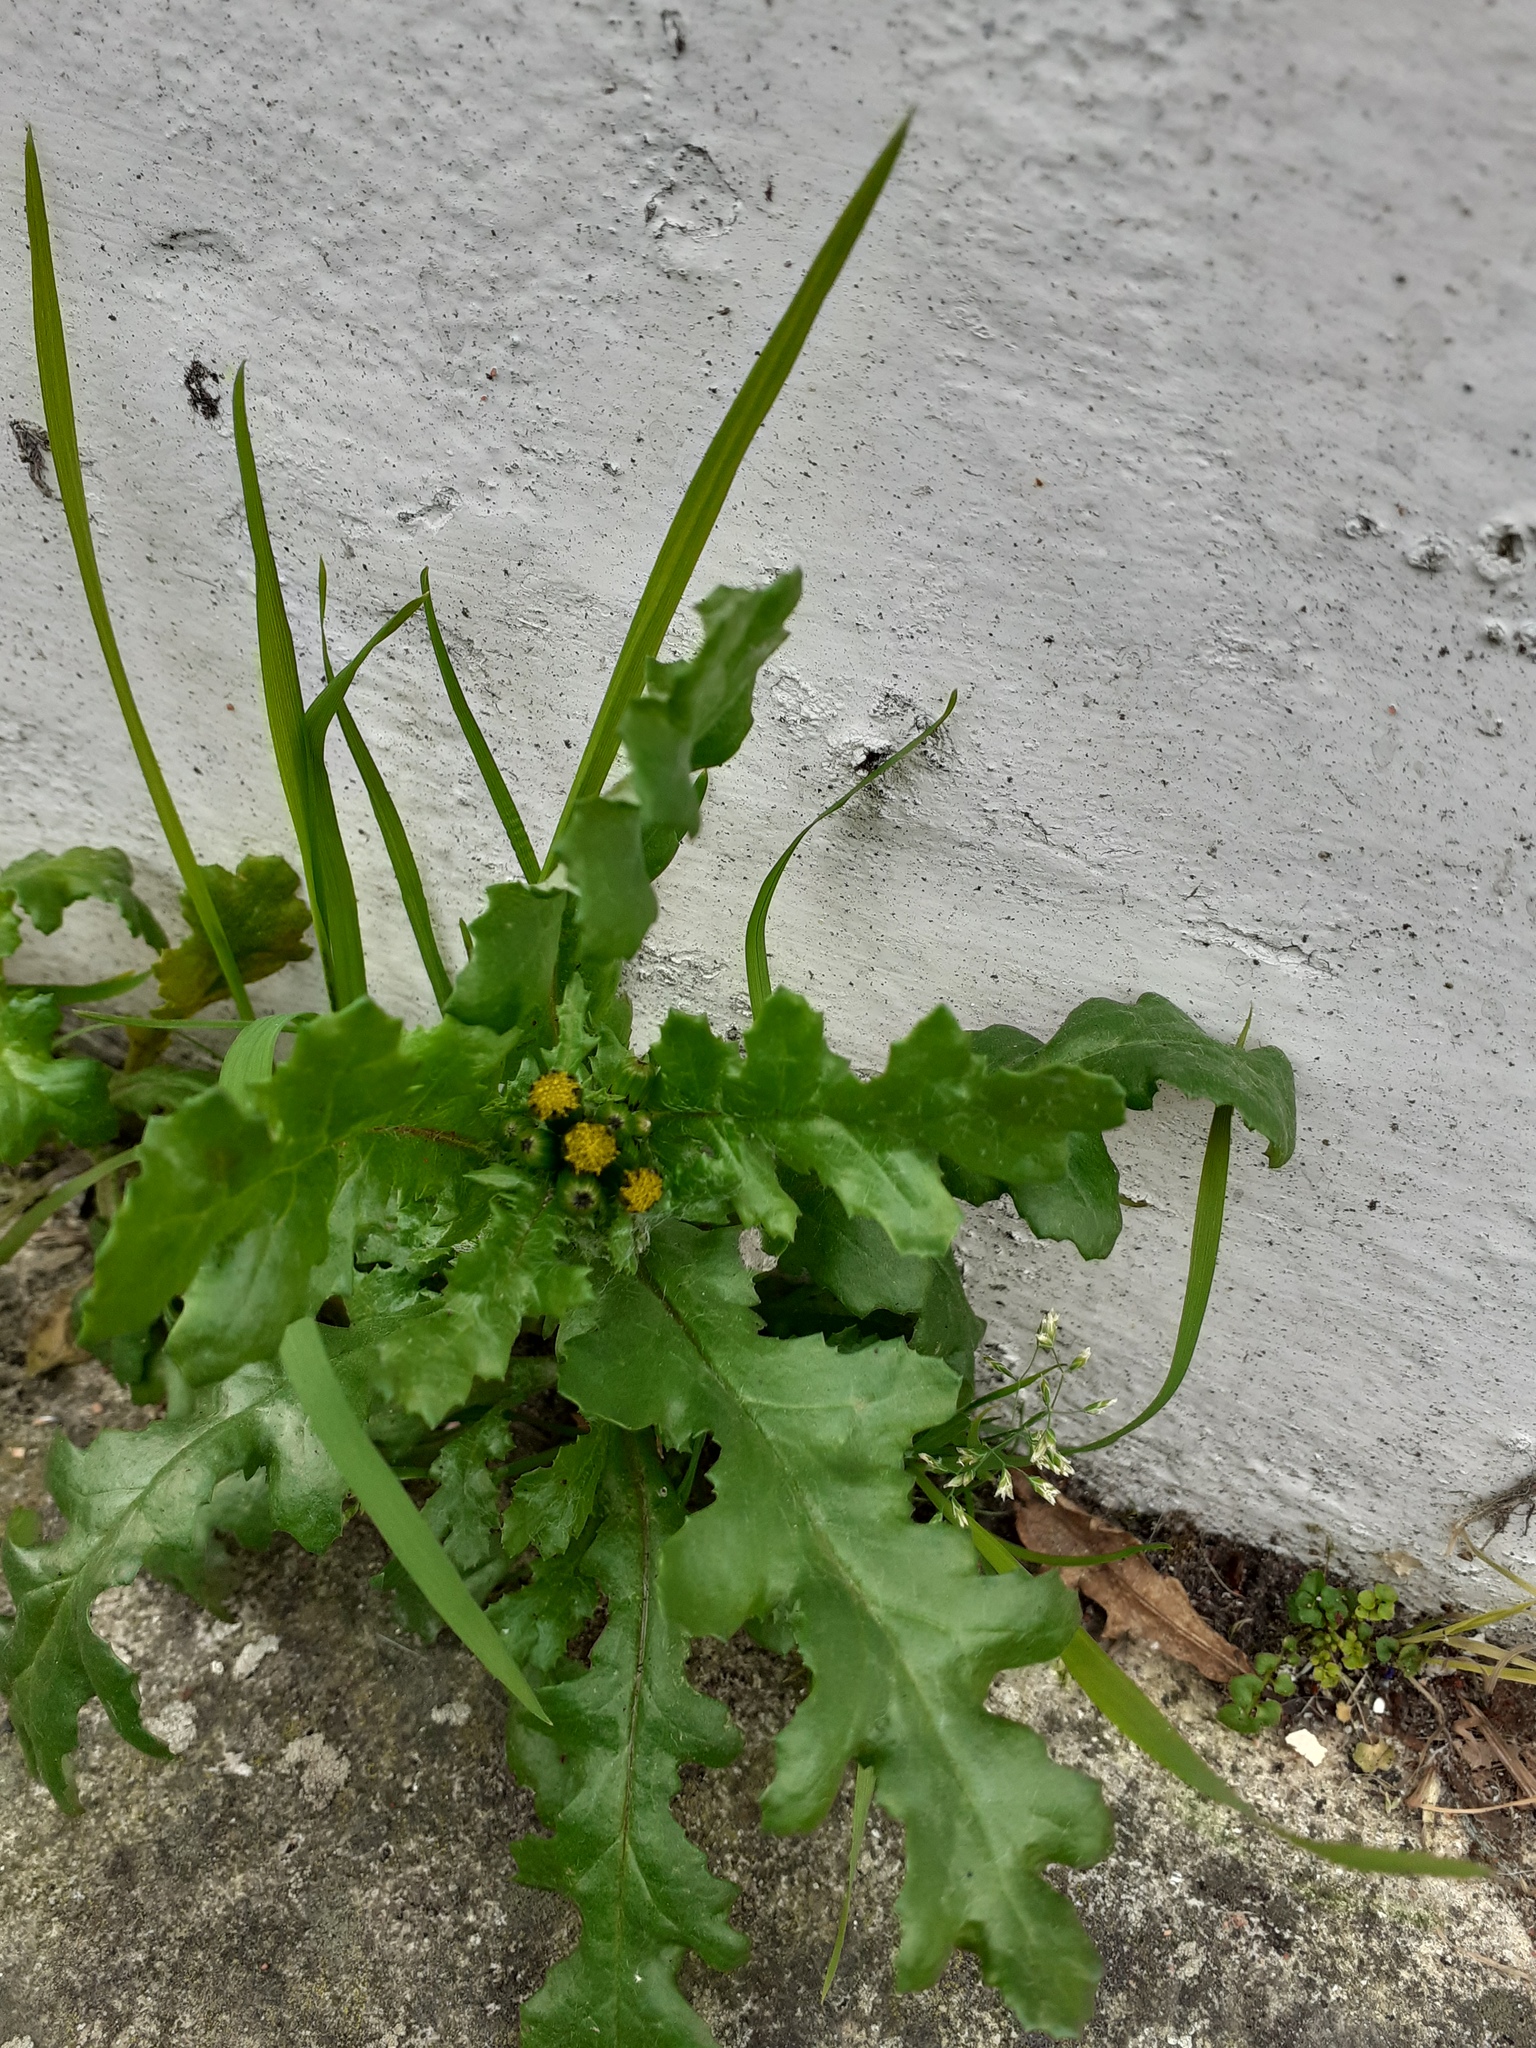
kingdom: Plantae
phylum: Tracheophyta
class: Magnoliopsida
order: Asterales
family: Asteraceae
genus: Senecio
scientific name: Senecio vulgaris
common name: Old-man-in-the-spring
